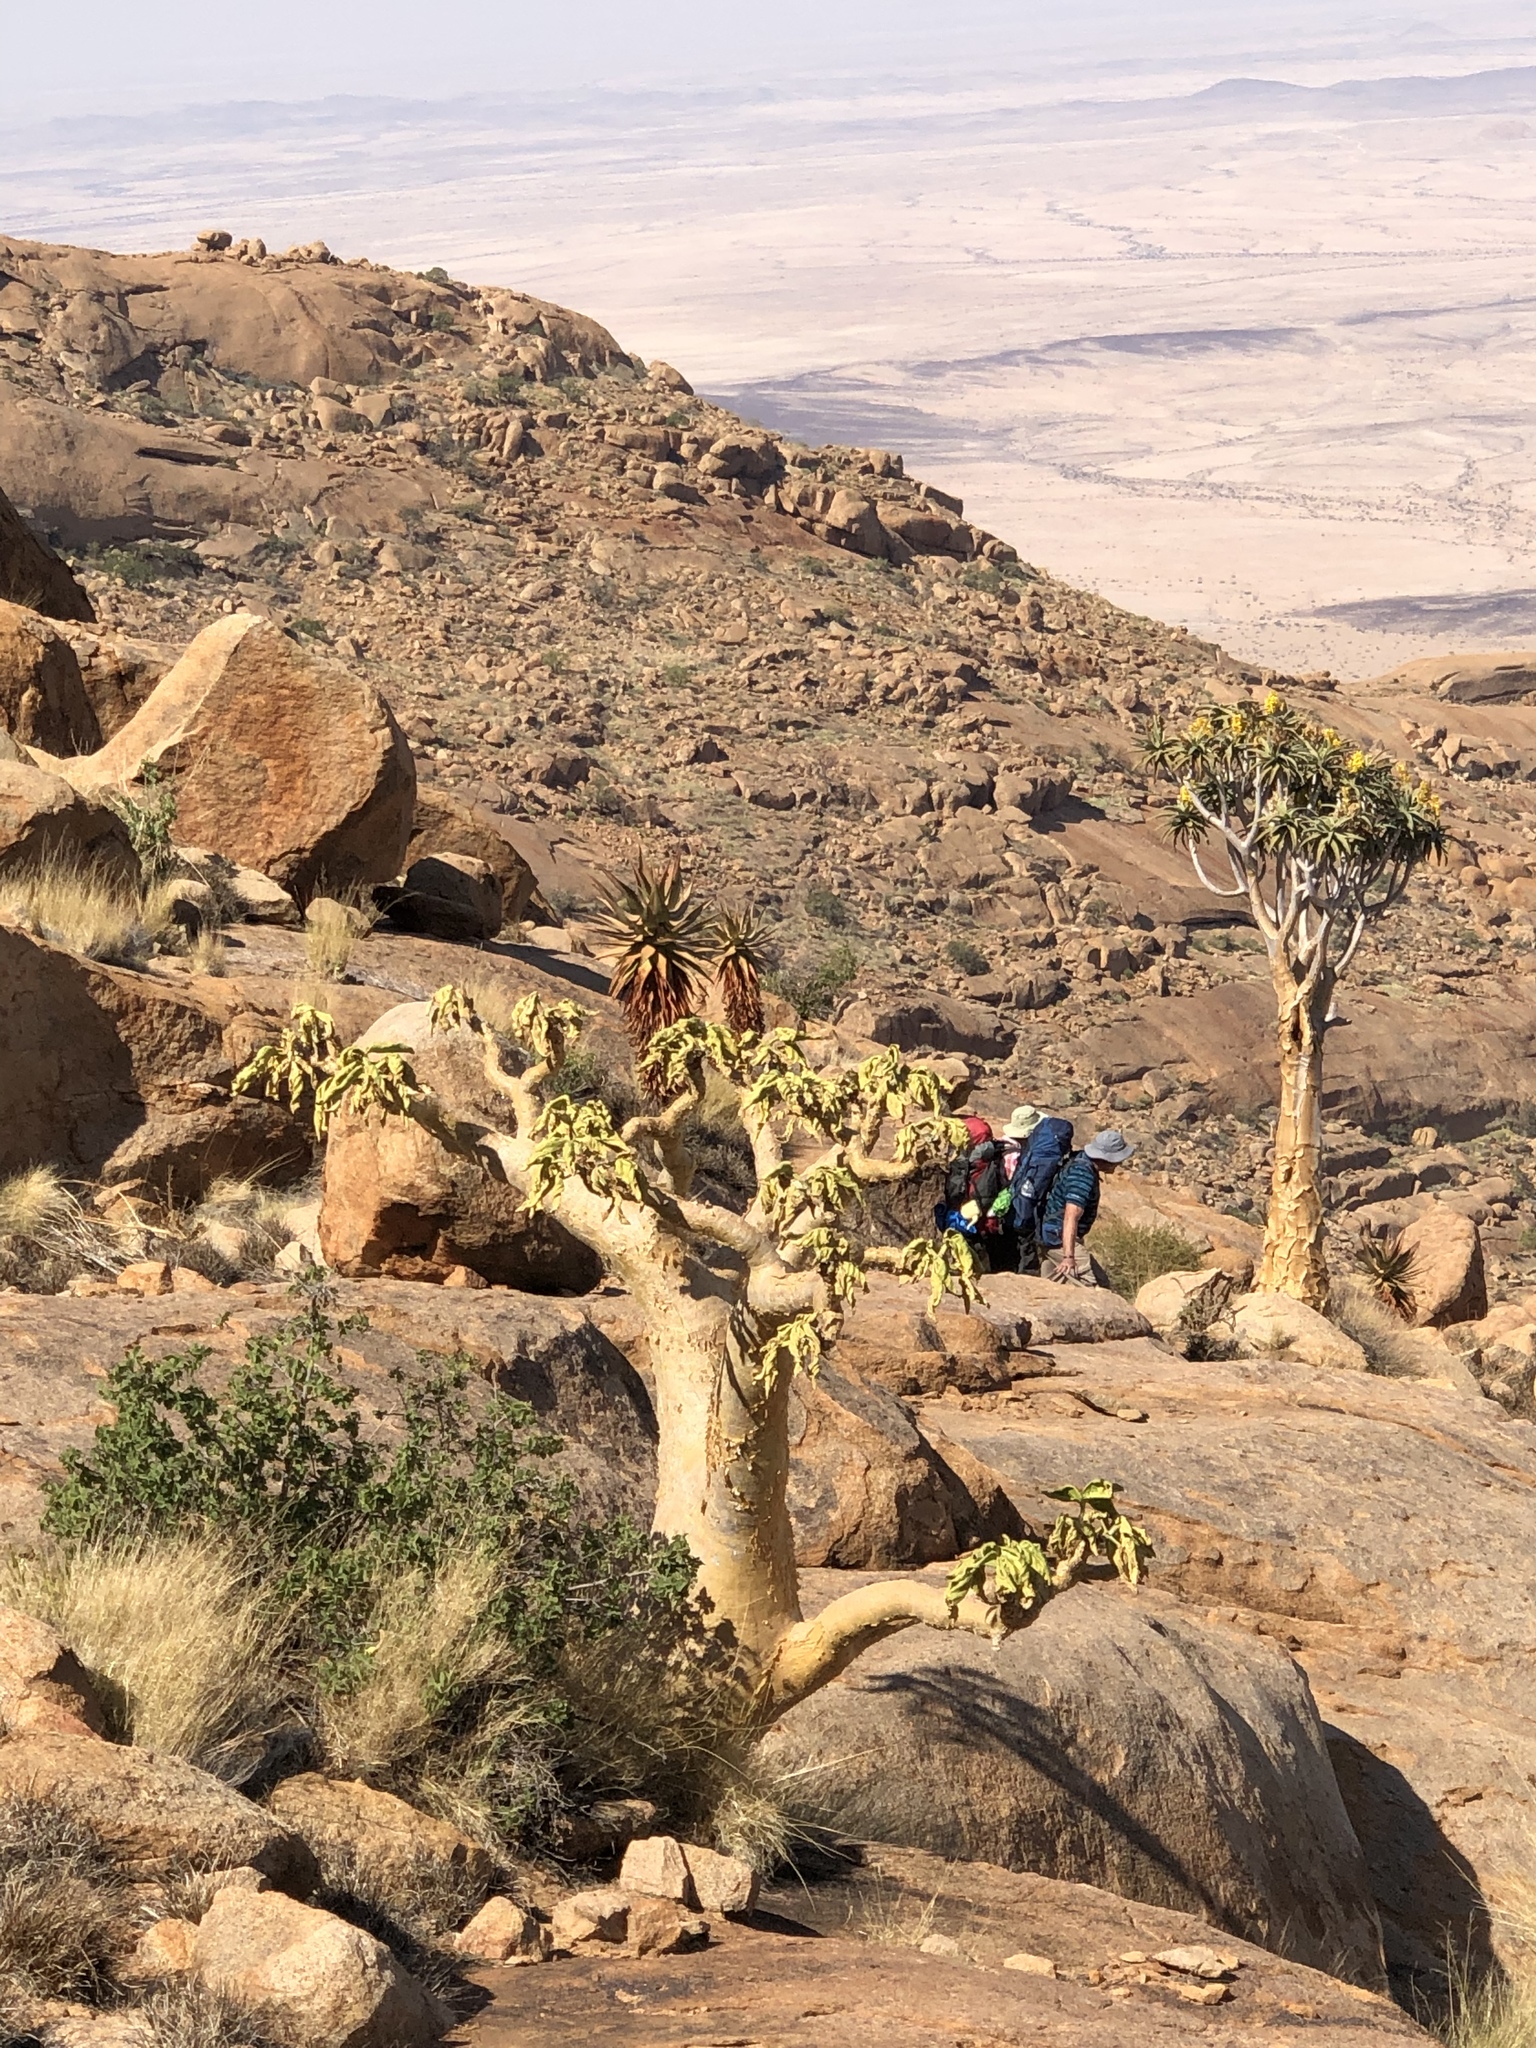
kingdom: Plantae
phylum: Tracheophyta
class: Magnoliopsida
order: Vitales
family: Vitaceae
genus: Cyphostemma
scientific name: Cyphostemma currorii
